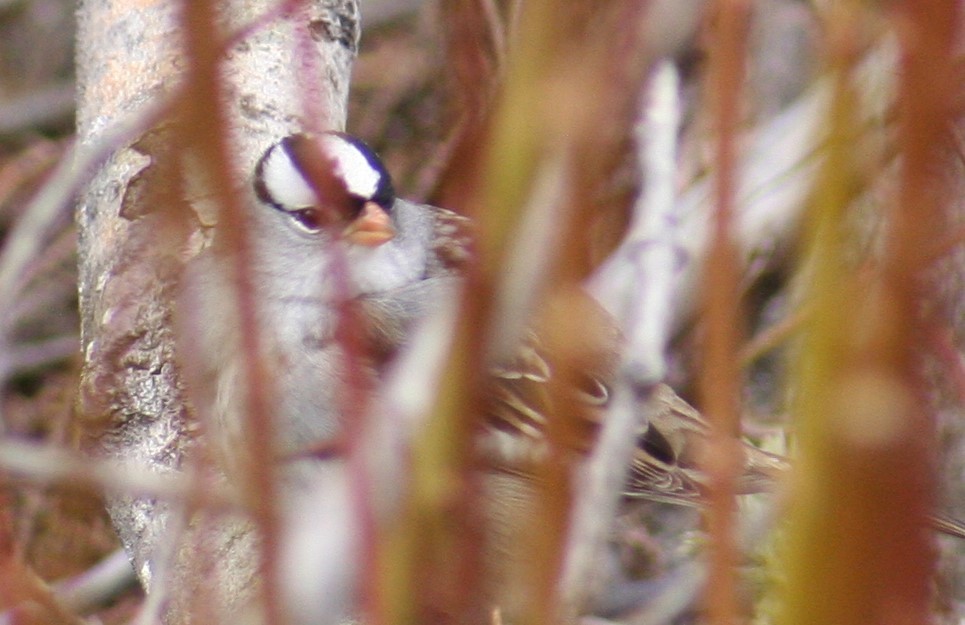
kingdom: Animalia
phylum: Chordata
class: Aves
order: Passeriformes
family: Passerellidae
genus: Zonotrichia
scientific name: Zonotrichia leucophrys
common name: White-crowned sparrow
